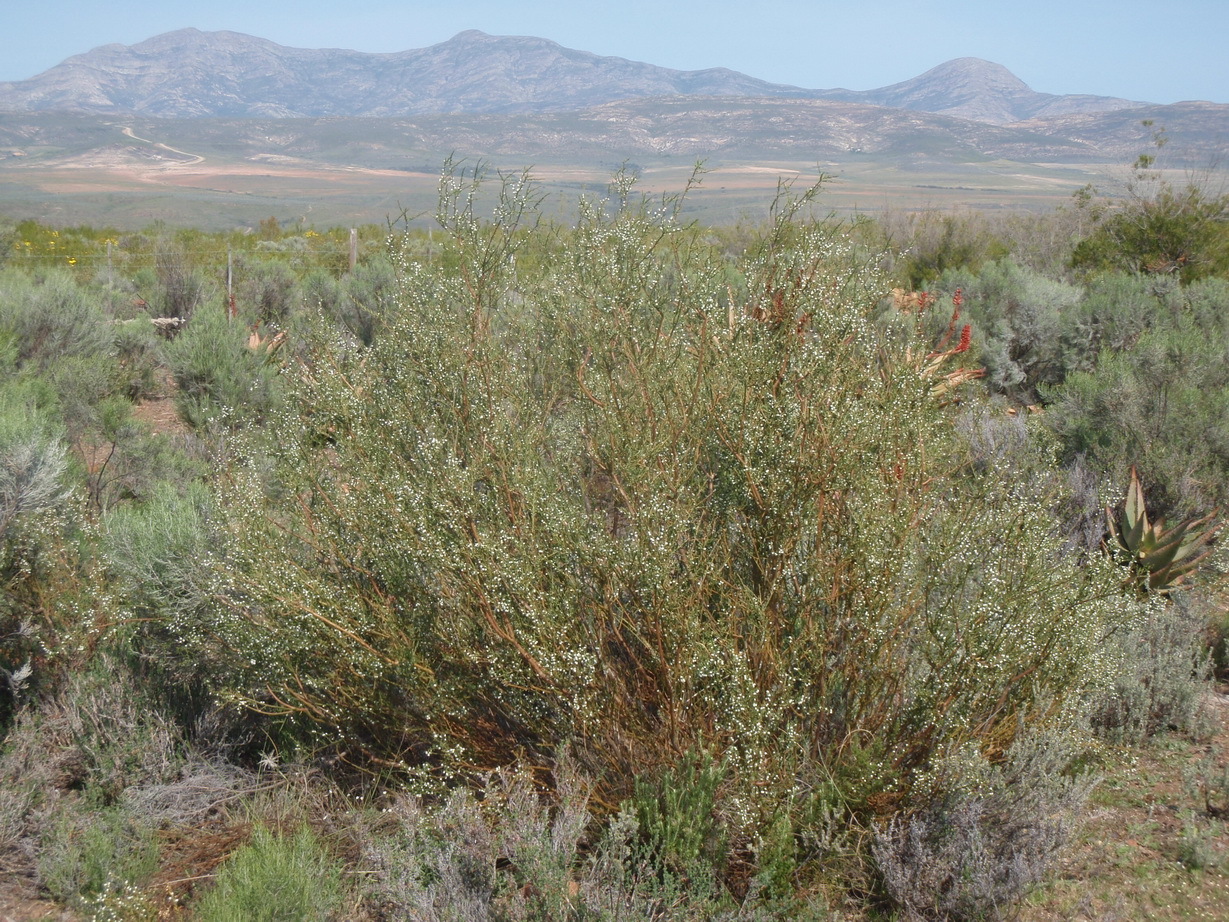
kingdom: Plantae
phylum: Tracheophyta
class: Magnoliopsida
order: Fabales
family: Polygalaceae
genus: Muraltia
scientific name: Muraltia spinosa
